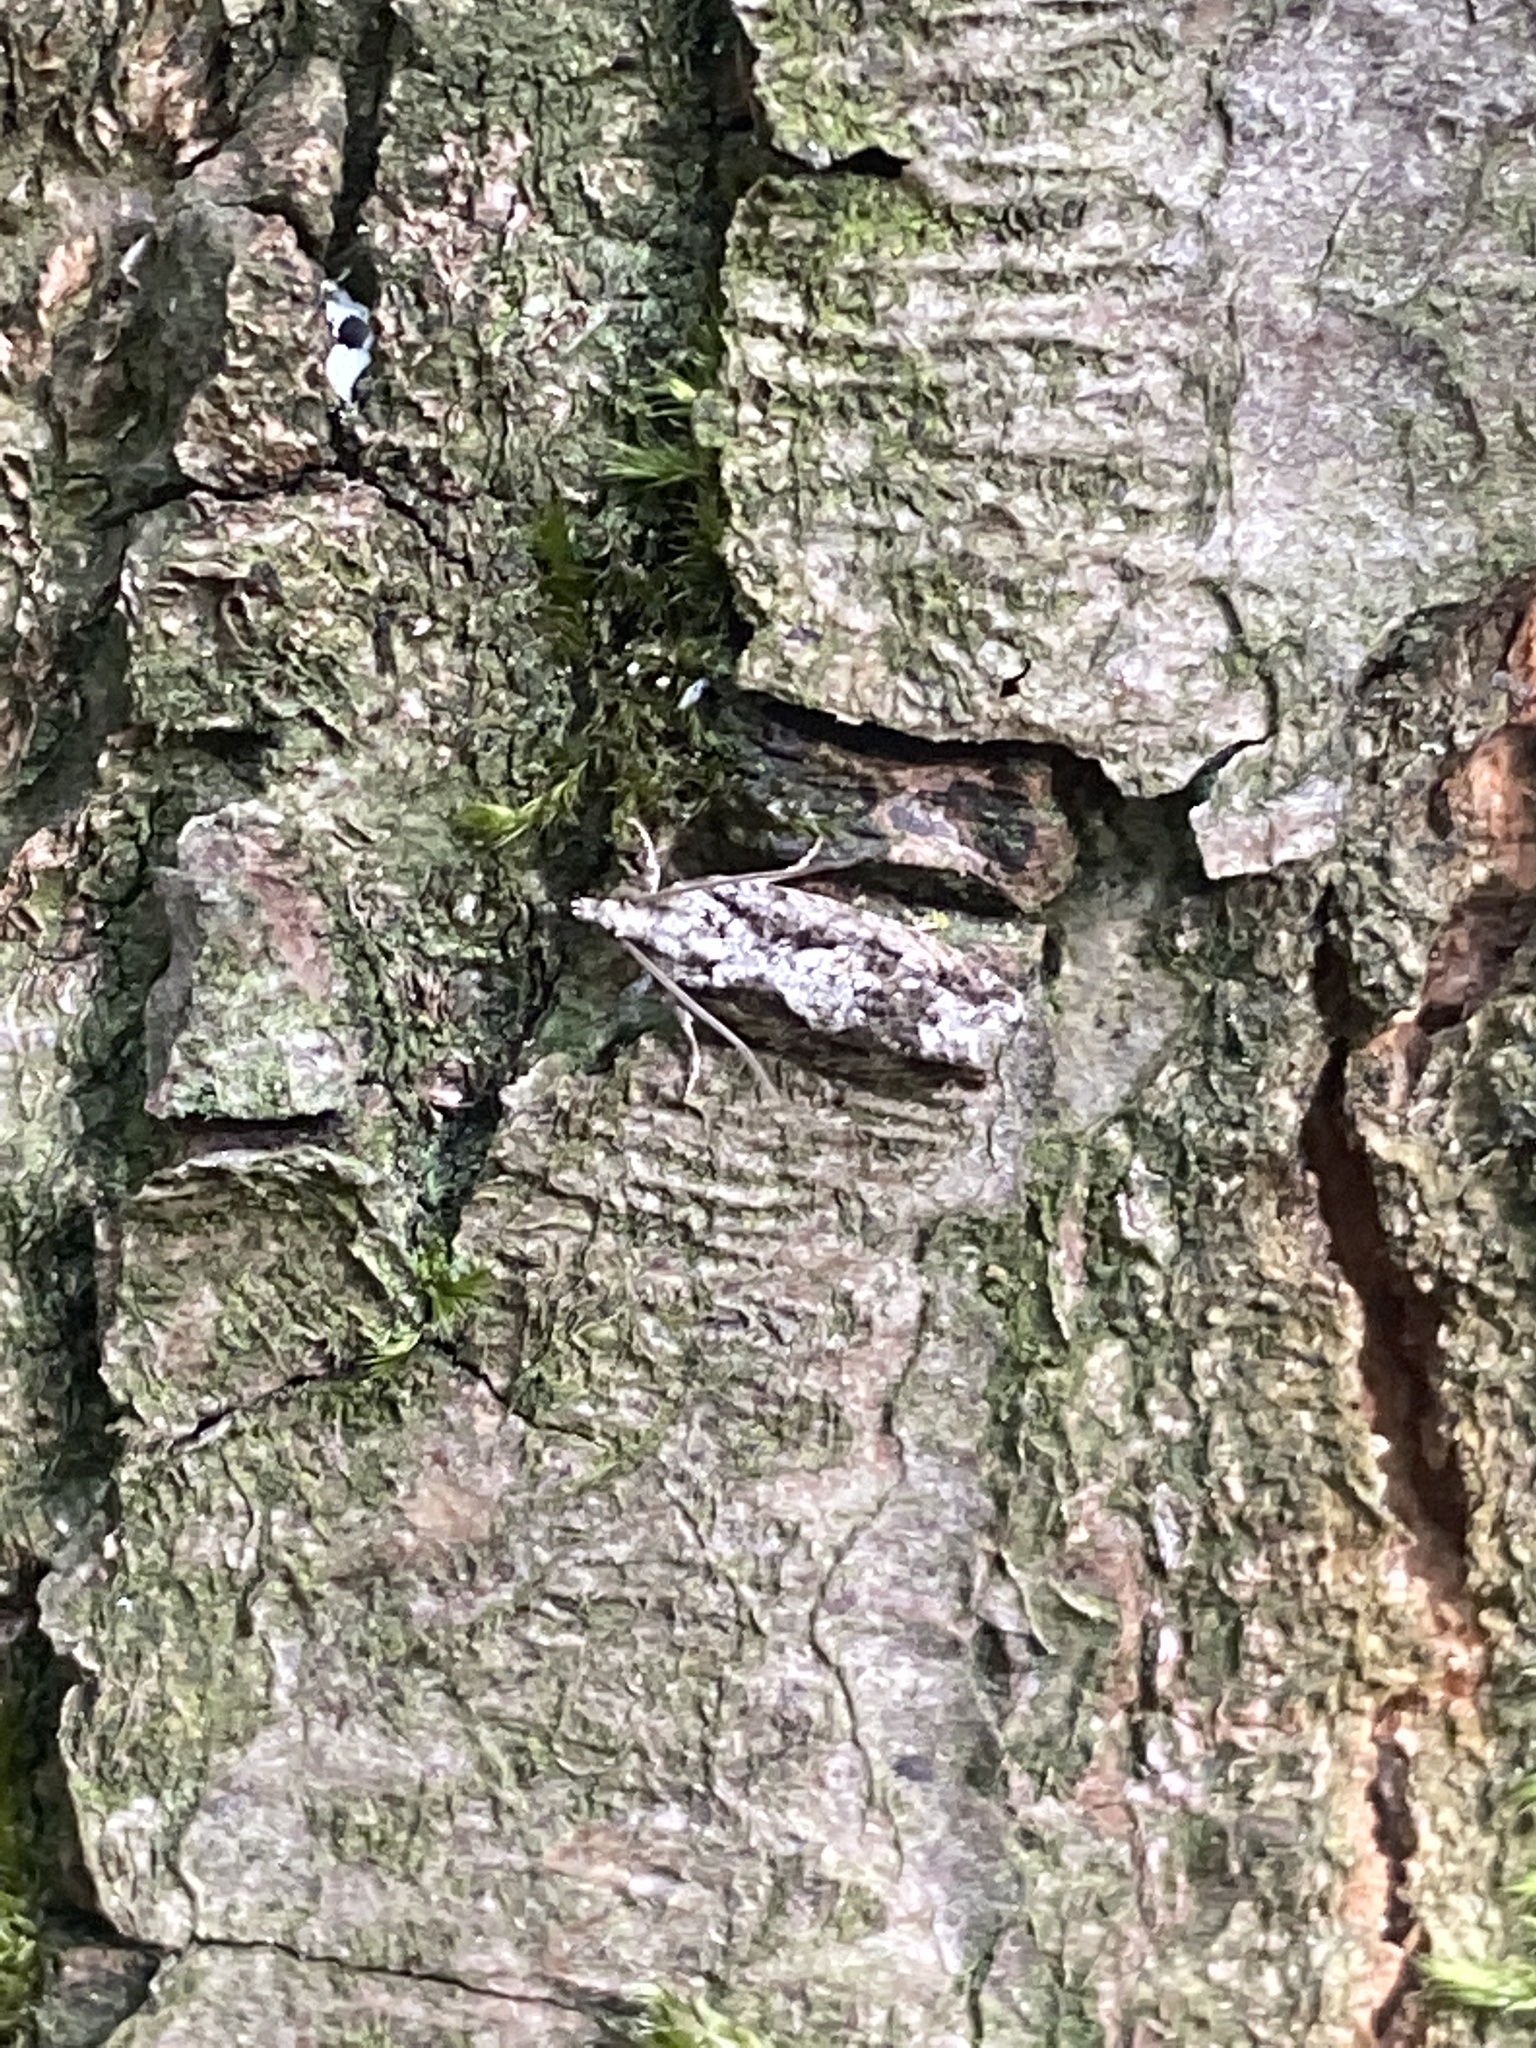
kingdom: Animalia
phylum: Arthropoda
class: Insecta
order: Lepidoptera
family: Tortricidae
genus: Zeiraphera
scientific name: Zeiraphera isertana
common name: Cock's-head bell
